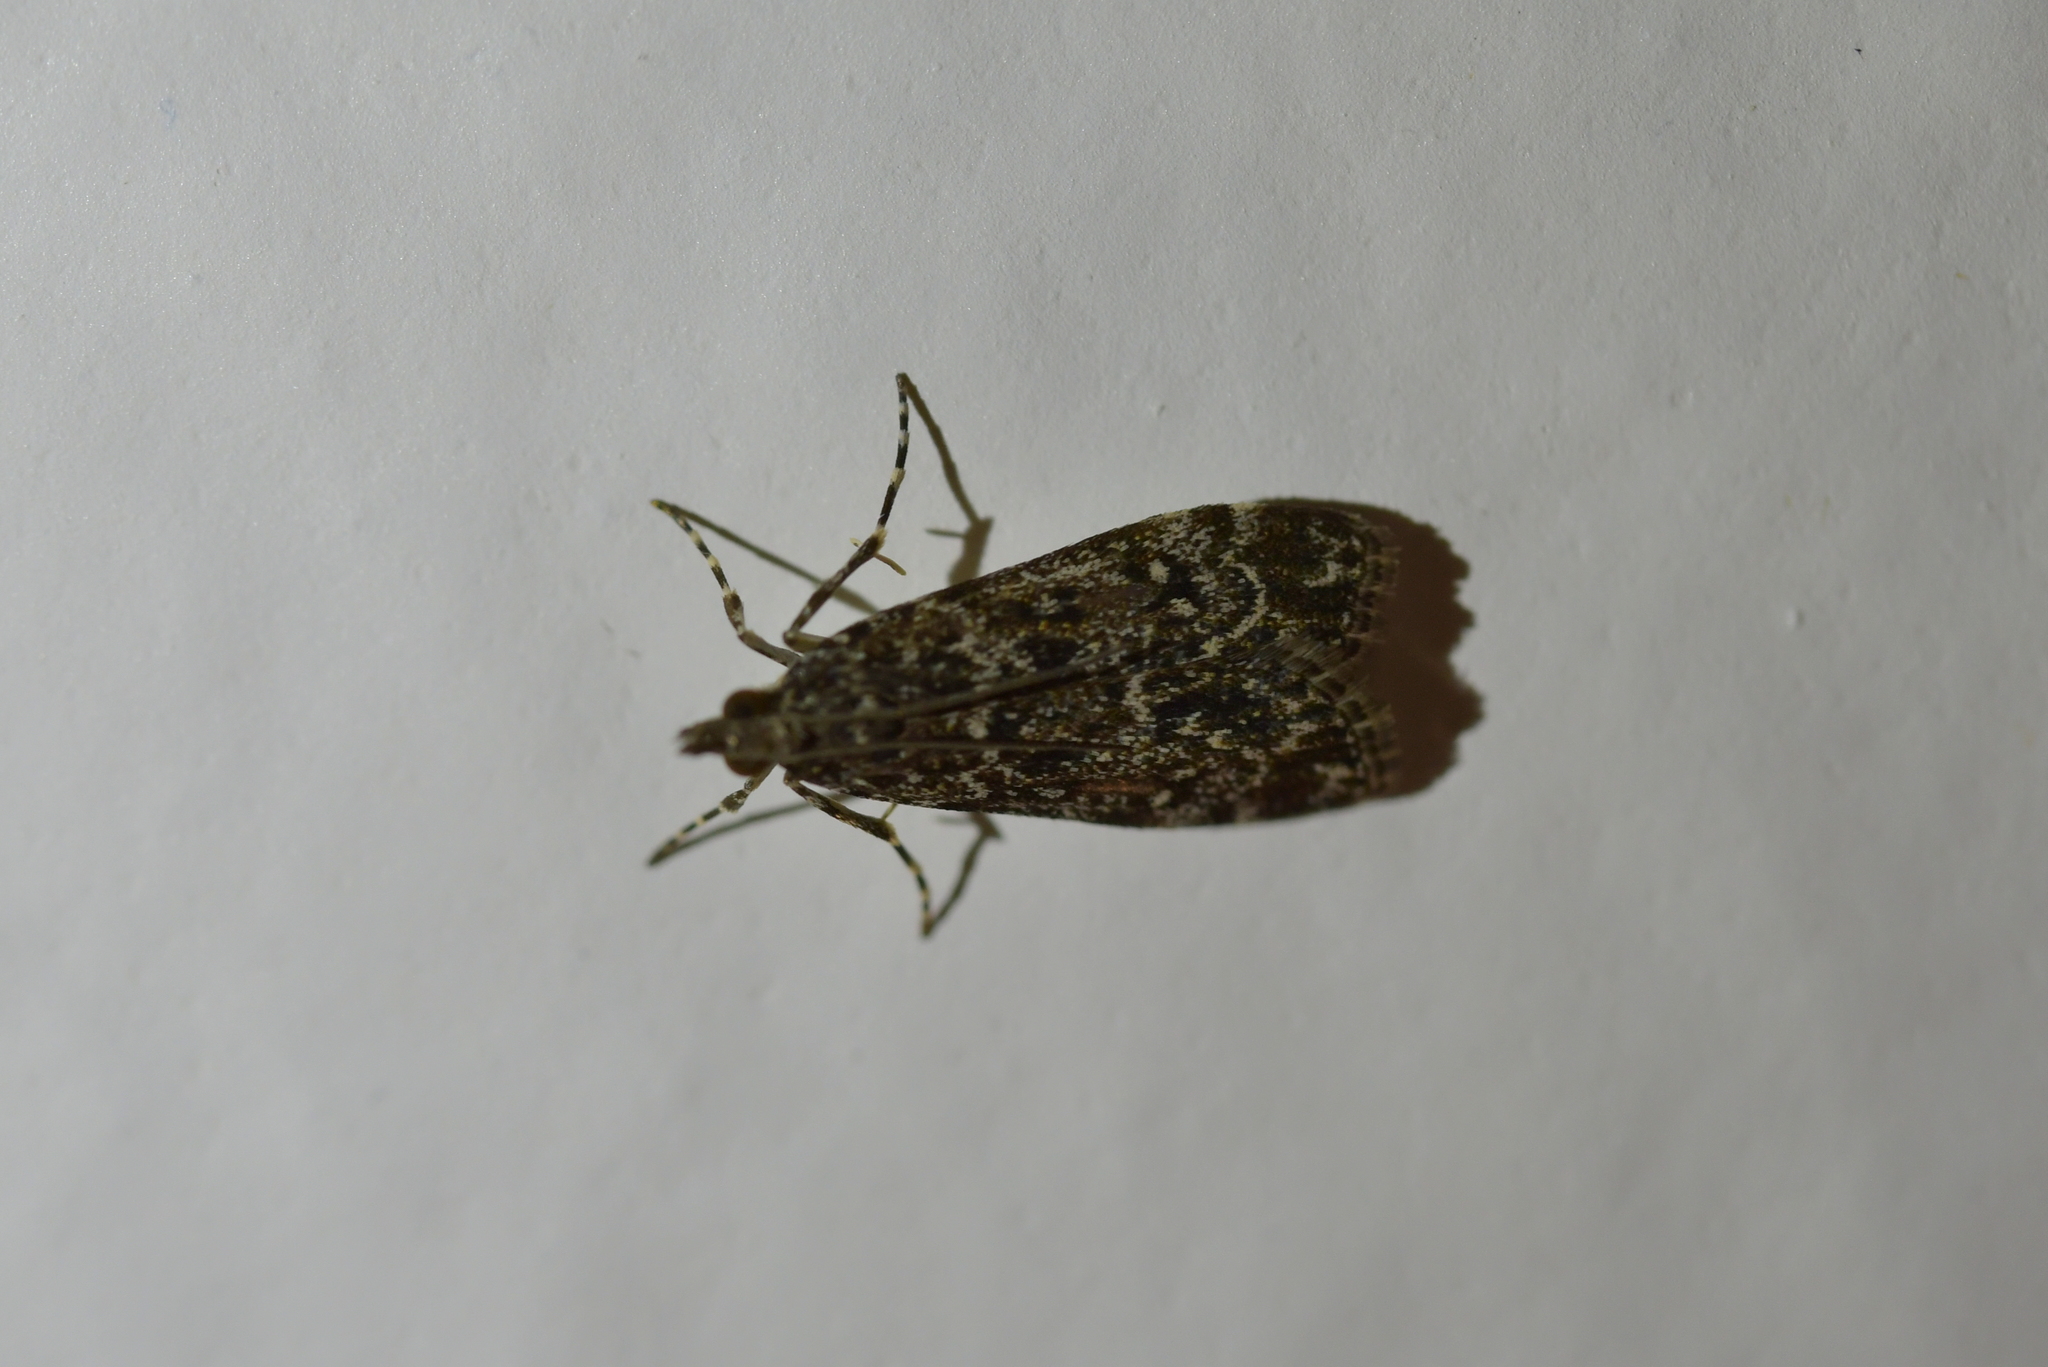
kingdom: Animalia
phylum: Arthropoda
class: Insecta
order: Lepidoptera
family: Crambidae
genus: Eudonia
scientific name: Eudonia philerga
